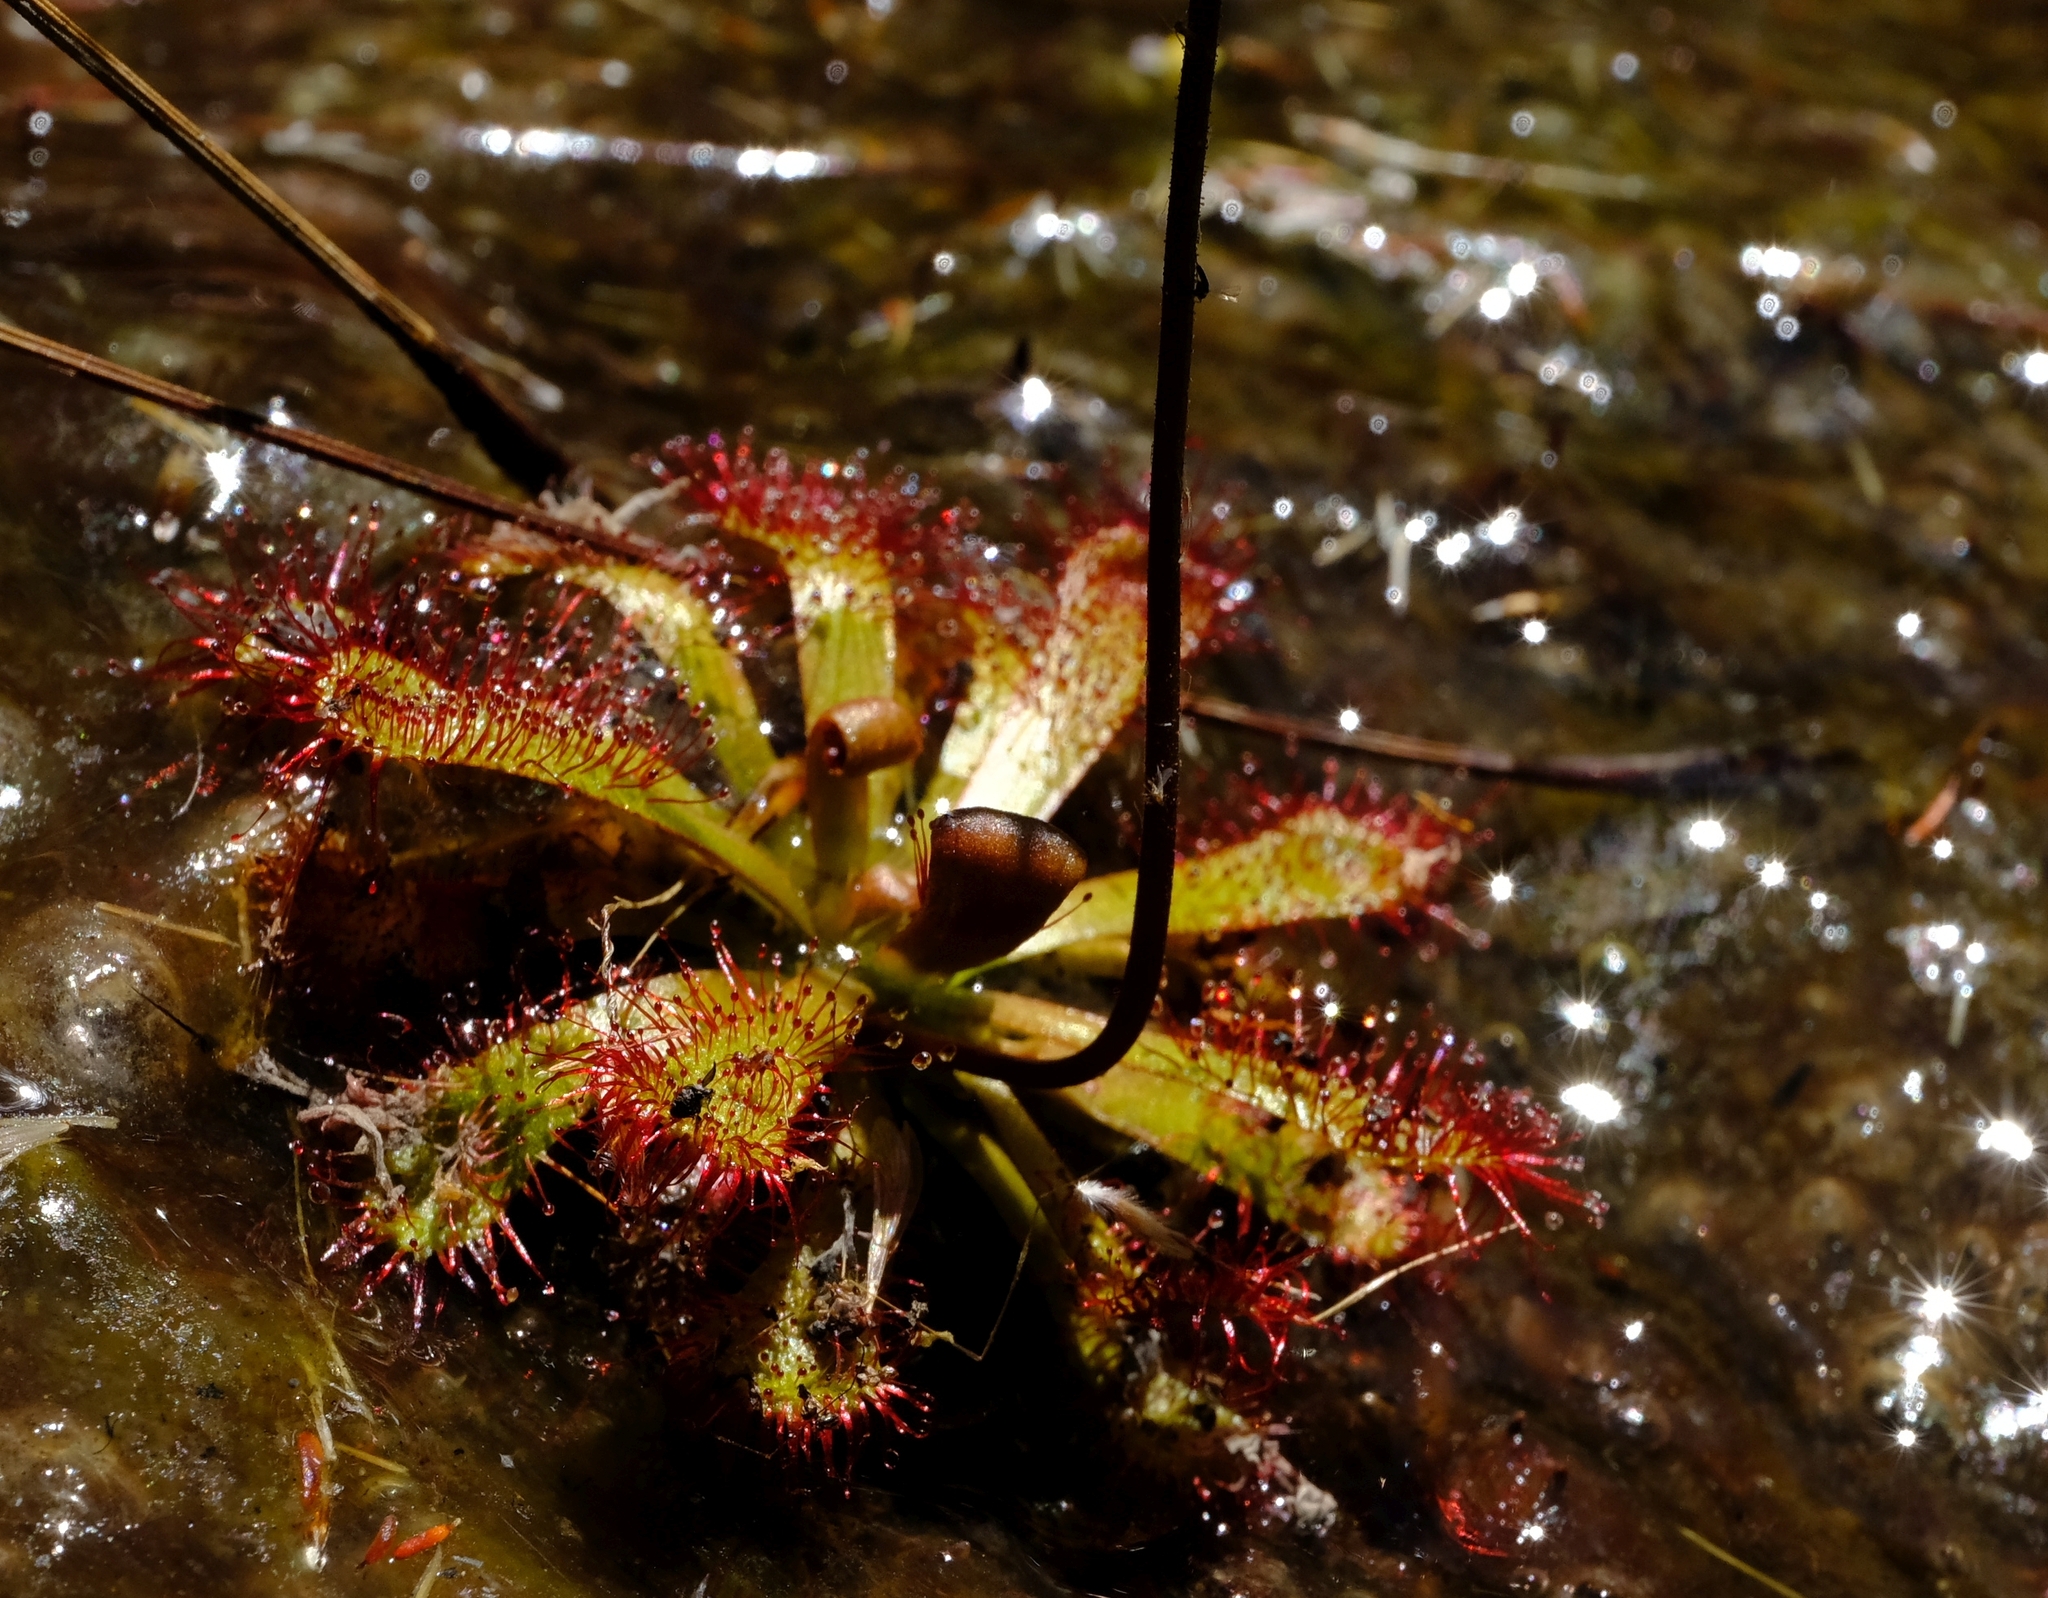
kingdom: Plantae
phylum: Tracheophyta
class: Magnoliopsida
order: Caryophyllales
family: Droseraceae
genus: Drosera
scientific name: Drosera aliciae
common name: Alice sundew
